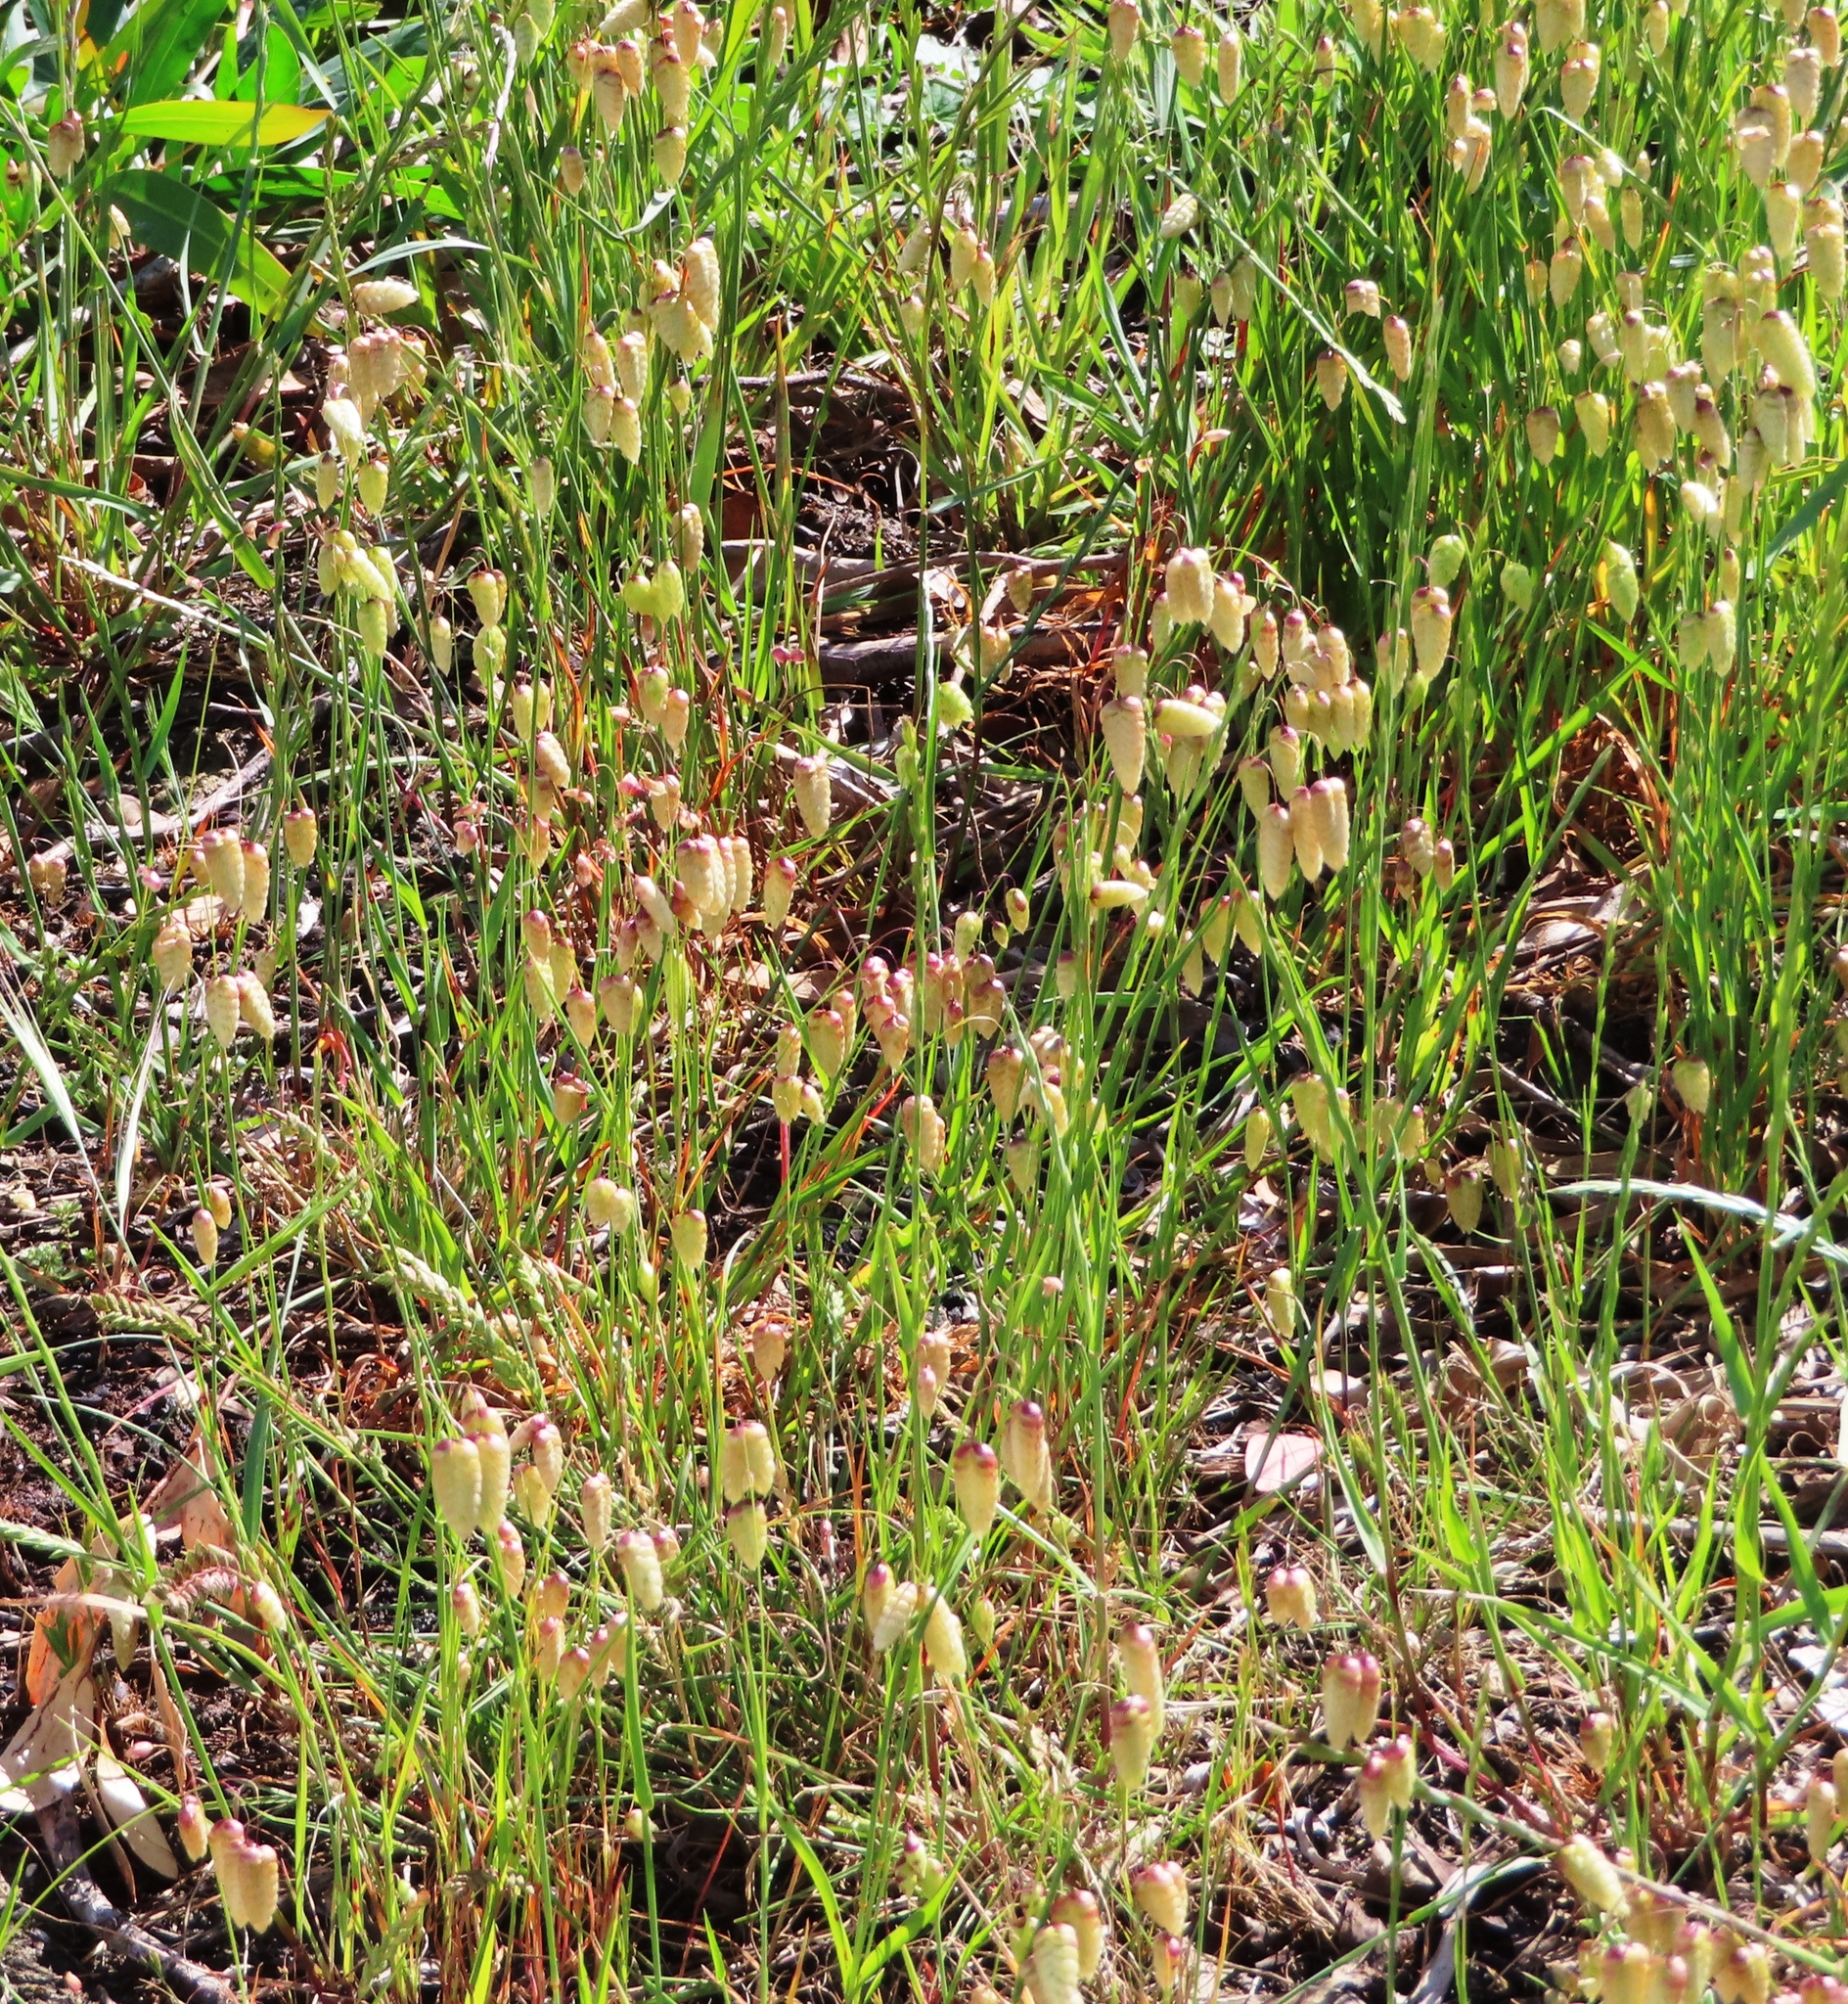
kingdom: Plantae
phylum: Tracheophyta
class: Liliopsida
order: Poales
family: Poaceae
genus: Briza
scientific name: Briza maxima
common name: Big quakinggrass
